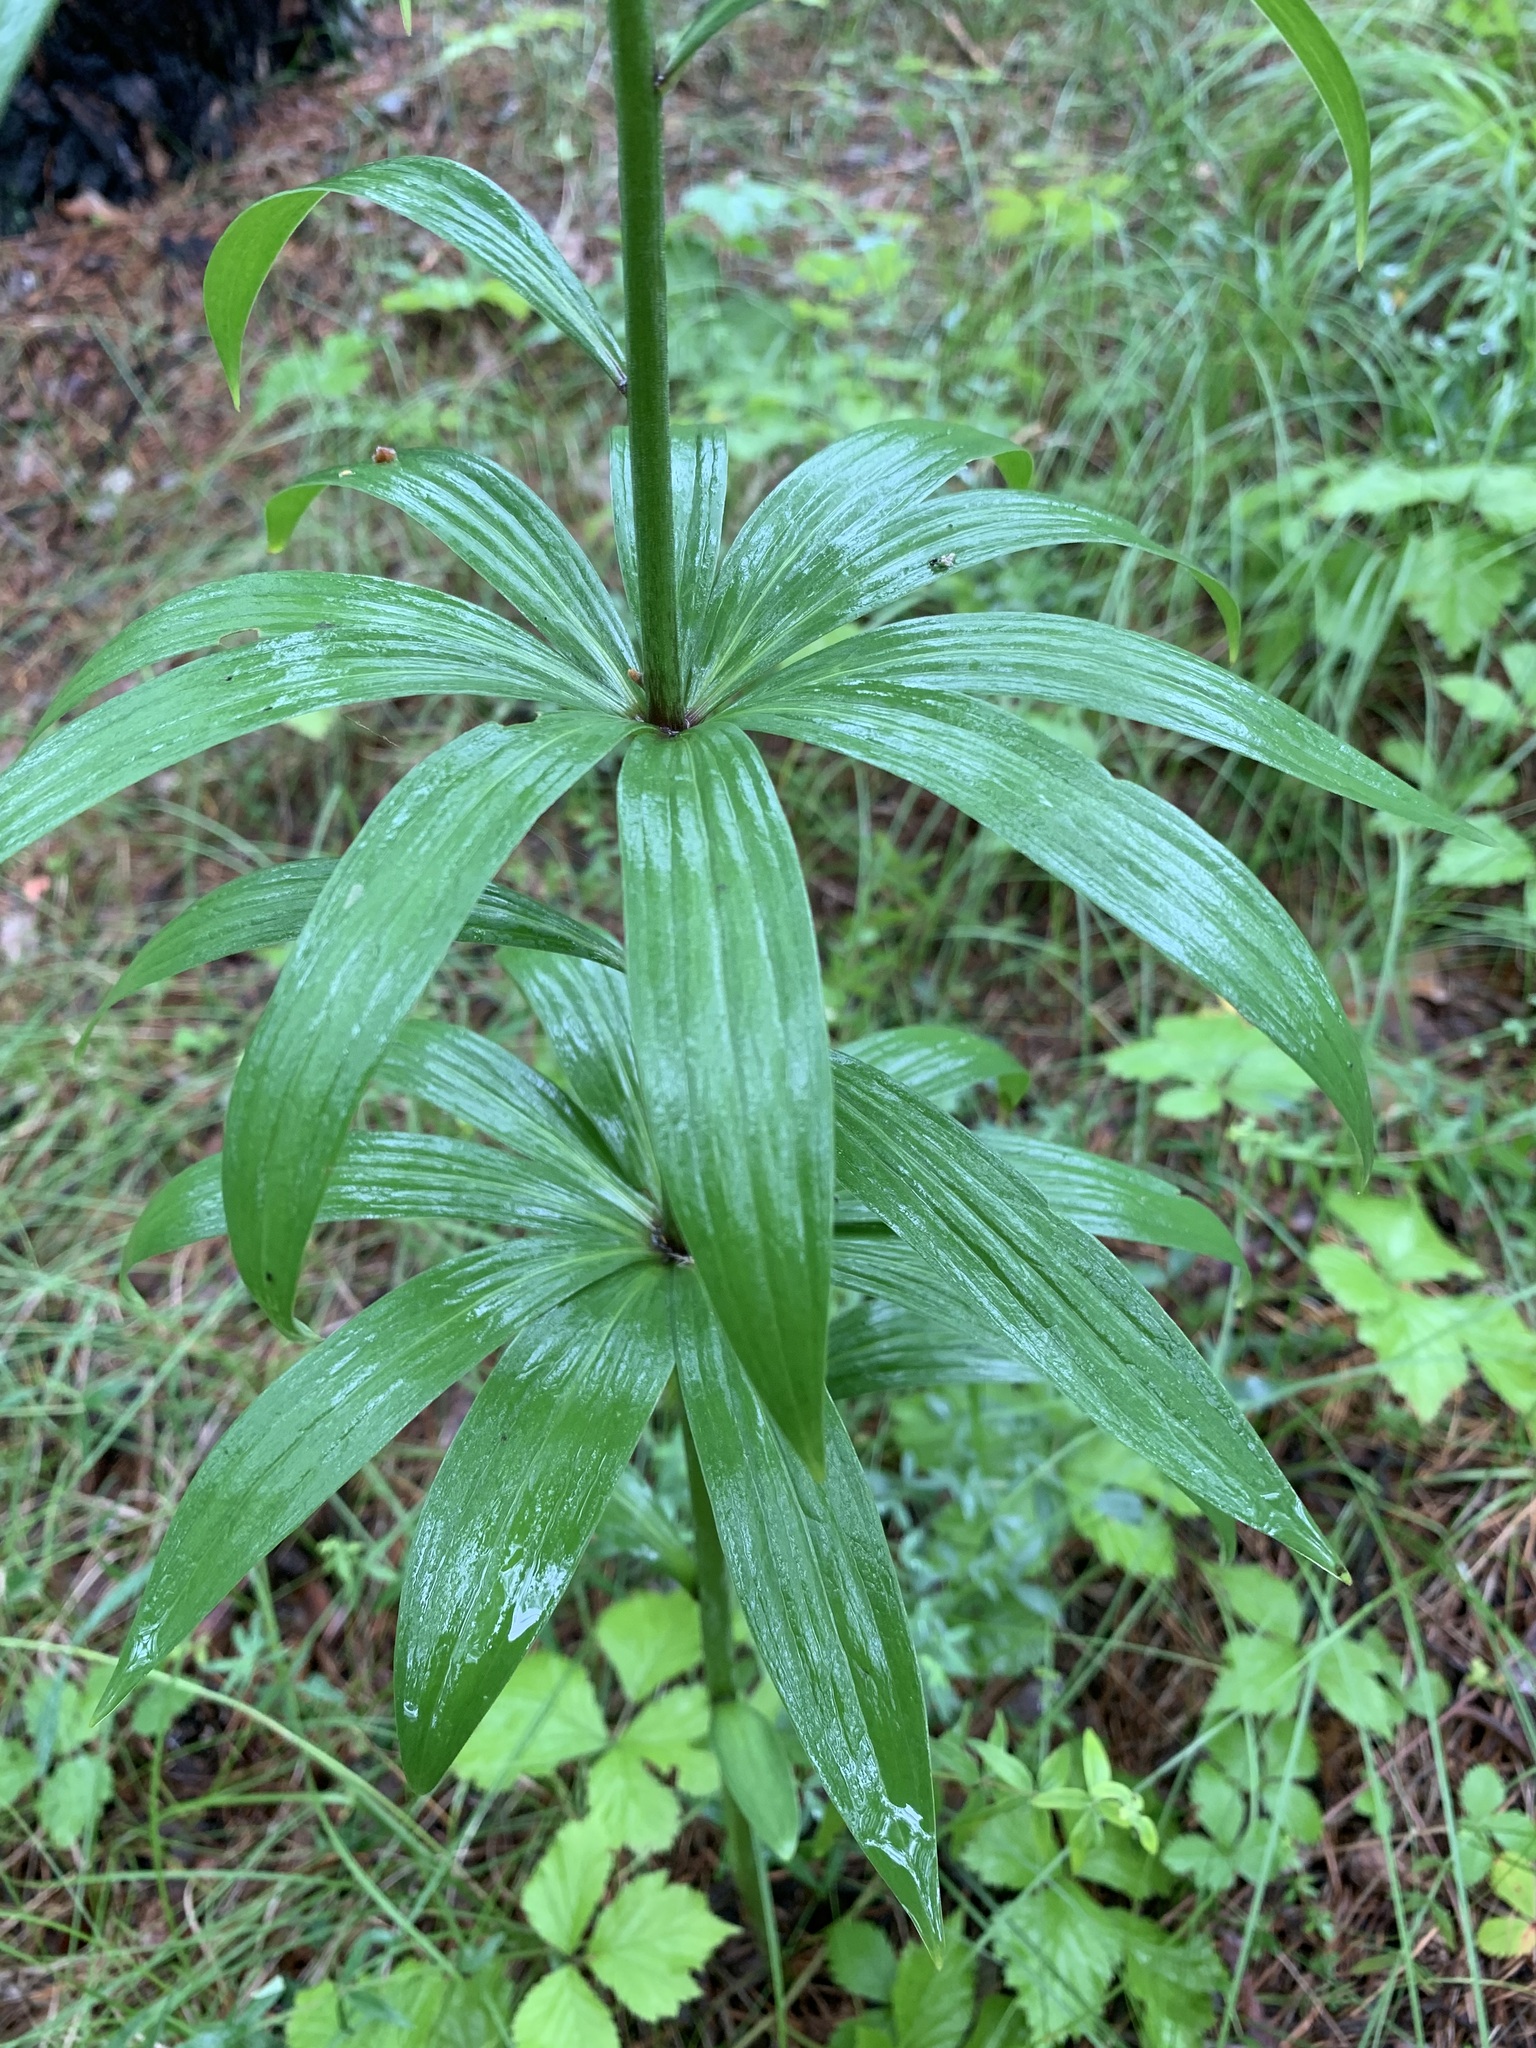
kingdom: Plantae
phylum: Tracheophyta
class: Liliopsida
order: Liliales
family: Liliaceae
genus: Lilium
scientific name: Lilium martagon
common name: Martagon lily
